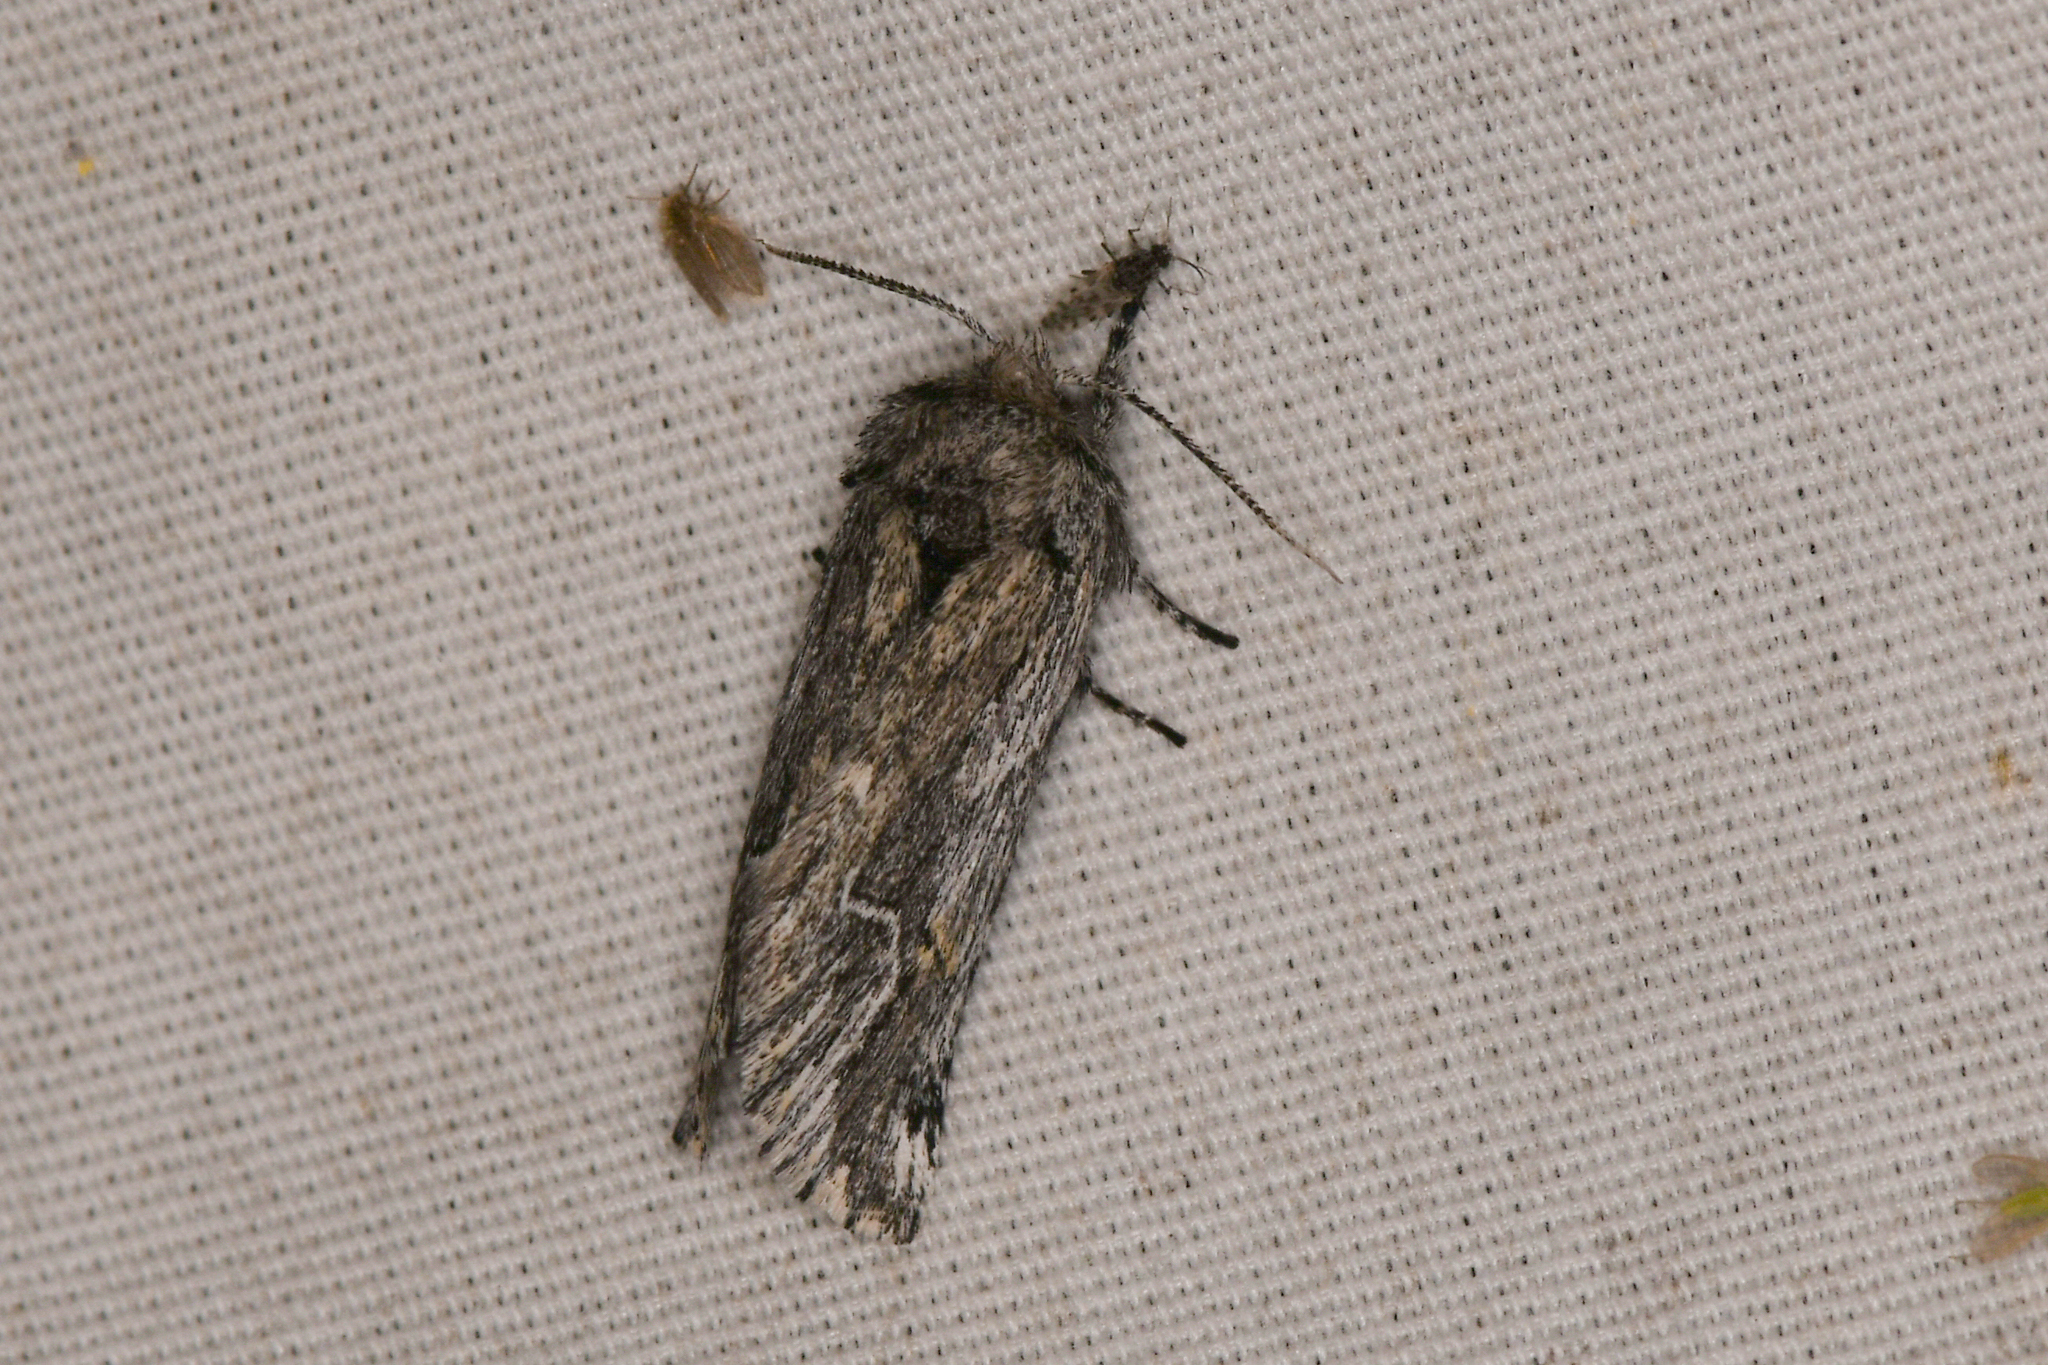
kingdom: Animalia
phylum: Arthropoda
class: Insecta
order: Lepidoptera
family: Notodontidae
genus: Ursia
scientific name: Ursia noctuiformis
